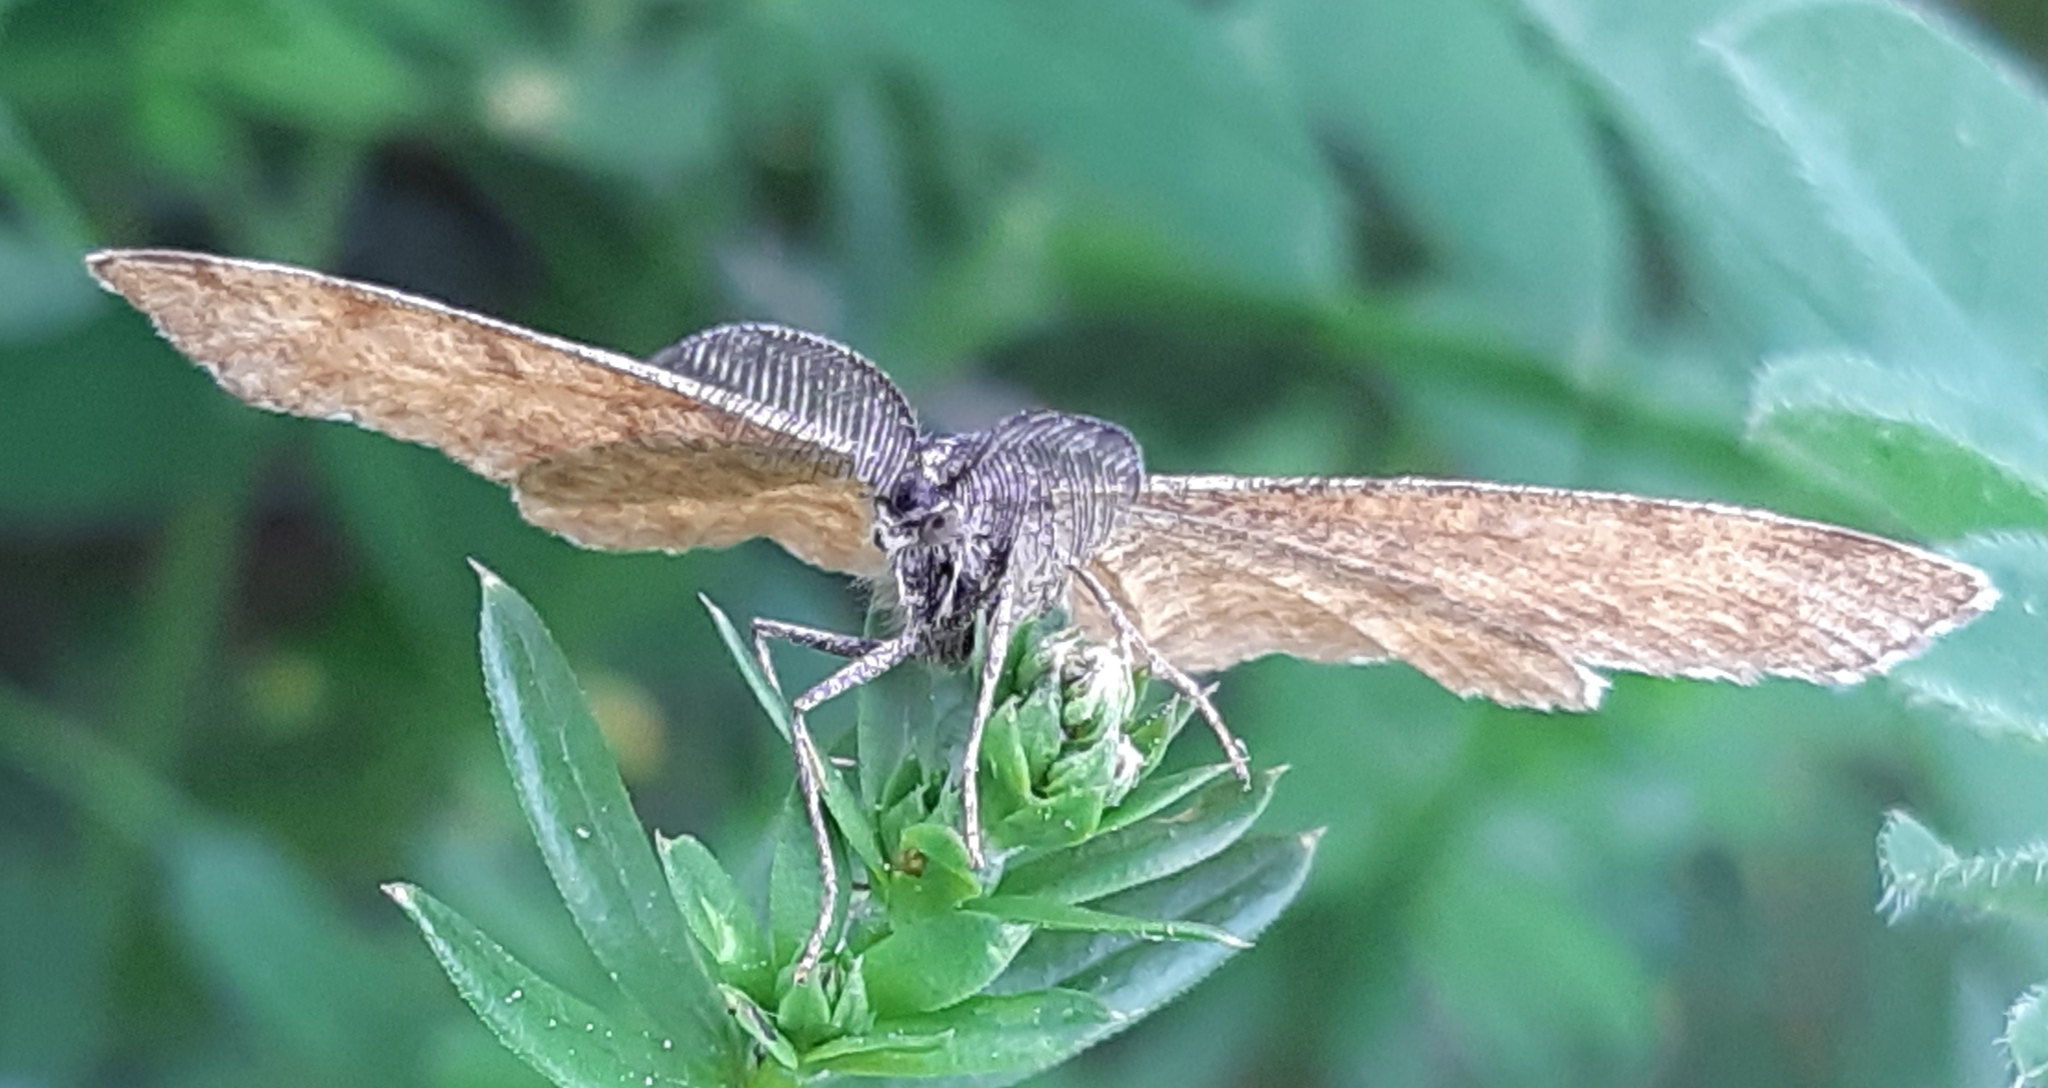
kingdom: Animalia
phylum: Arthropoda
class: Insecta
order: Lepidoptera
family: Geometridae
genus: Ematurga
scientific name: Ematurga atomaria
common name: Common heath
